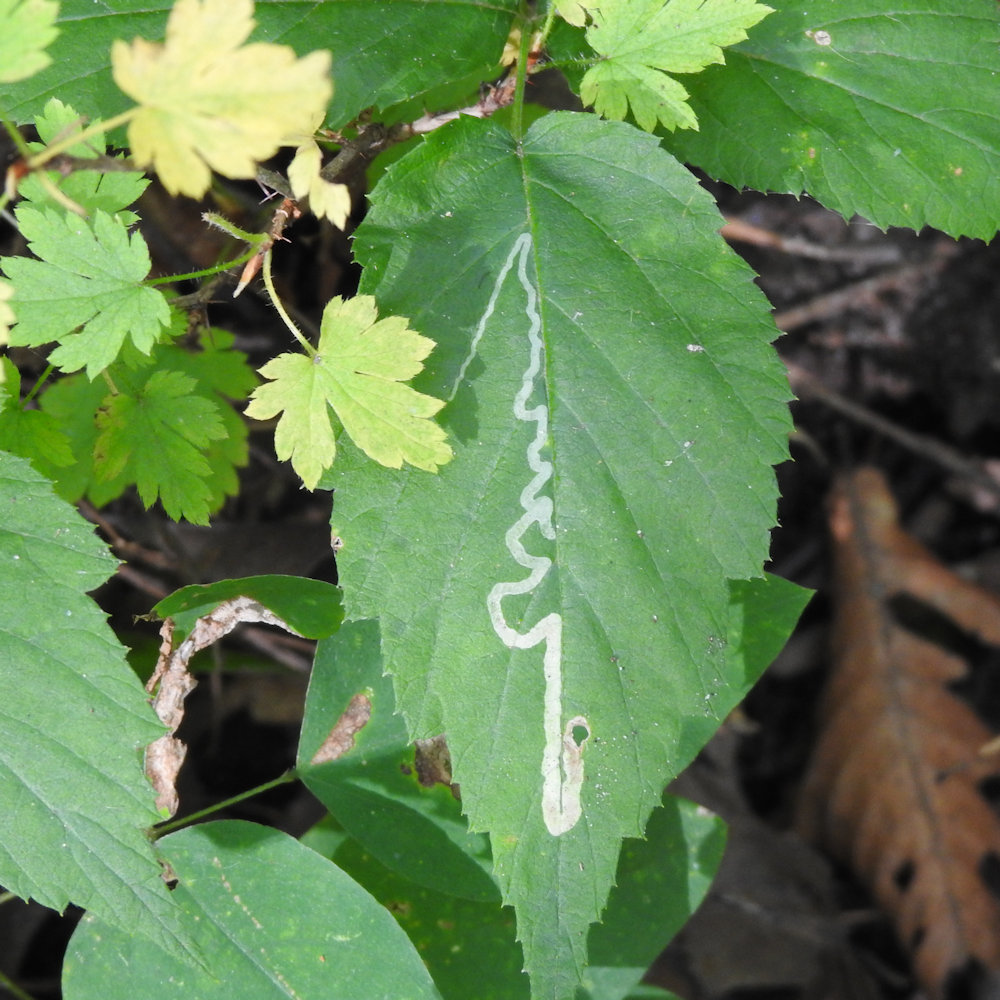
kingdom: Animalia
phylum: Arthropoda
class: Insecta
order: Diptera
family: Agromyzidae
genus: Agromyza
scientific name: Agromyza vockerothi
